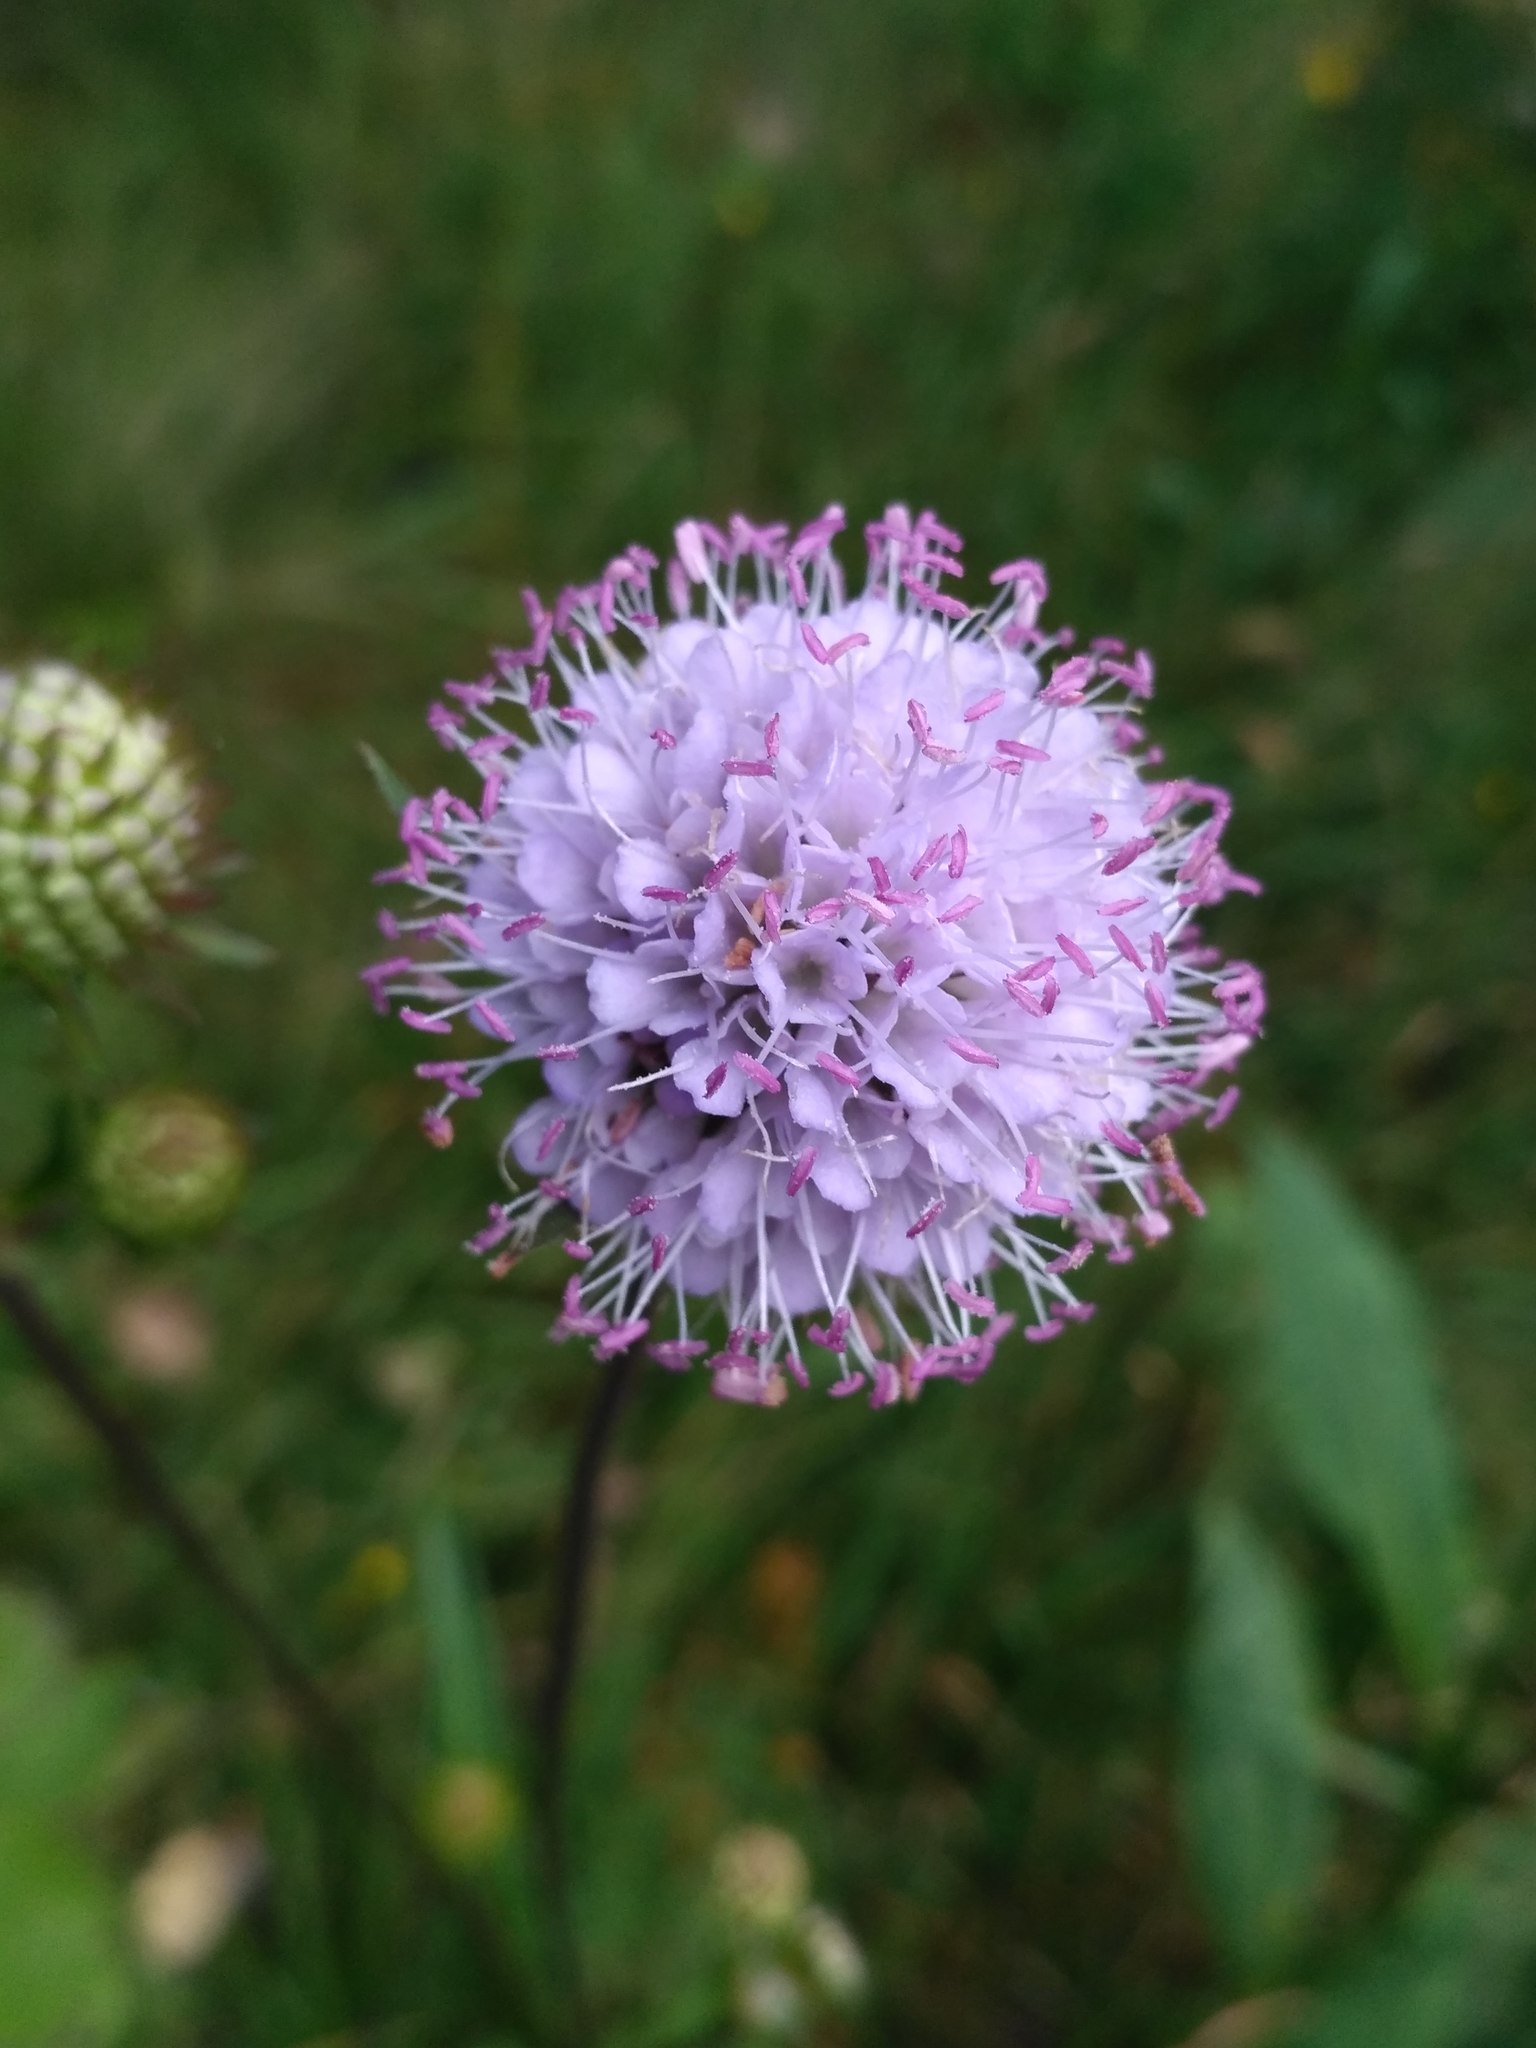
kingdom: Plantae
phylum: Tracheophyta
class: Magnoliopsida
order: Dipsacales
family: Caprifoliaceae
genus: Succisa
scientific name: Succisa pratensis
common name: Devil's-bit
